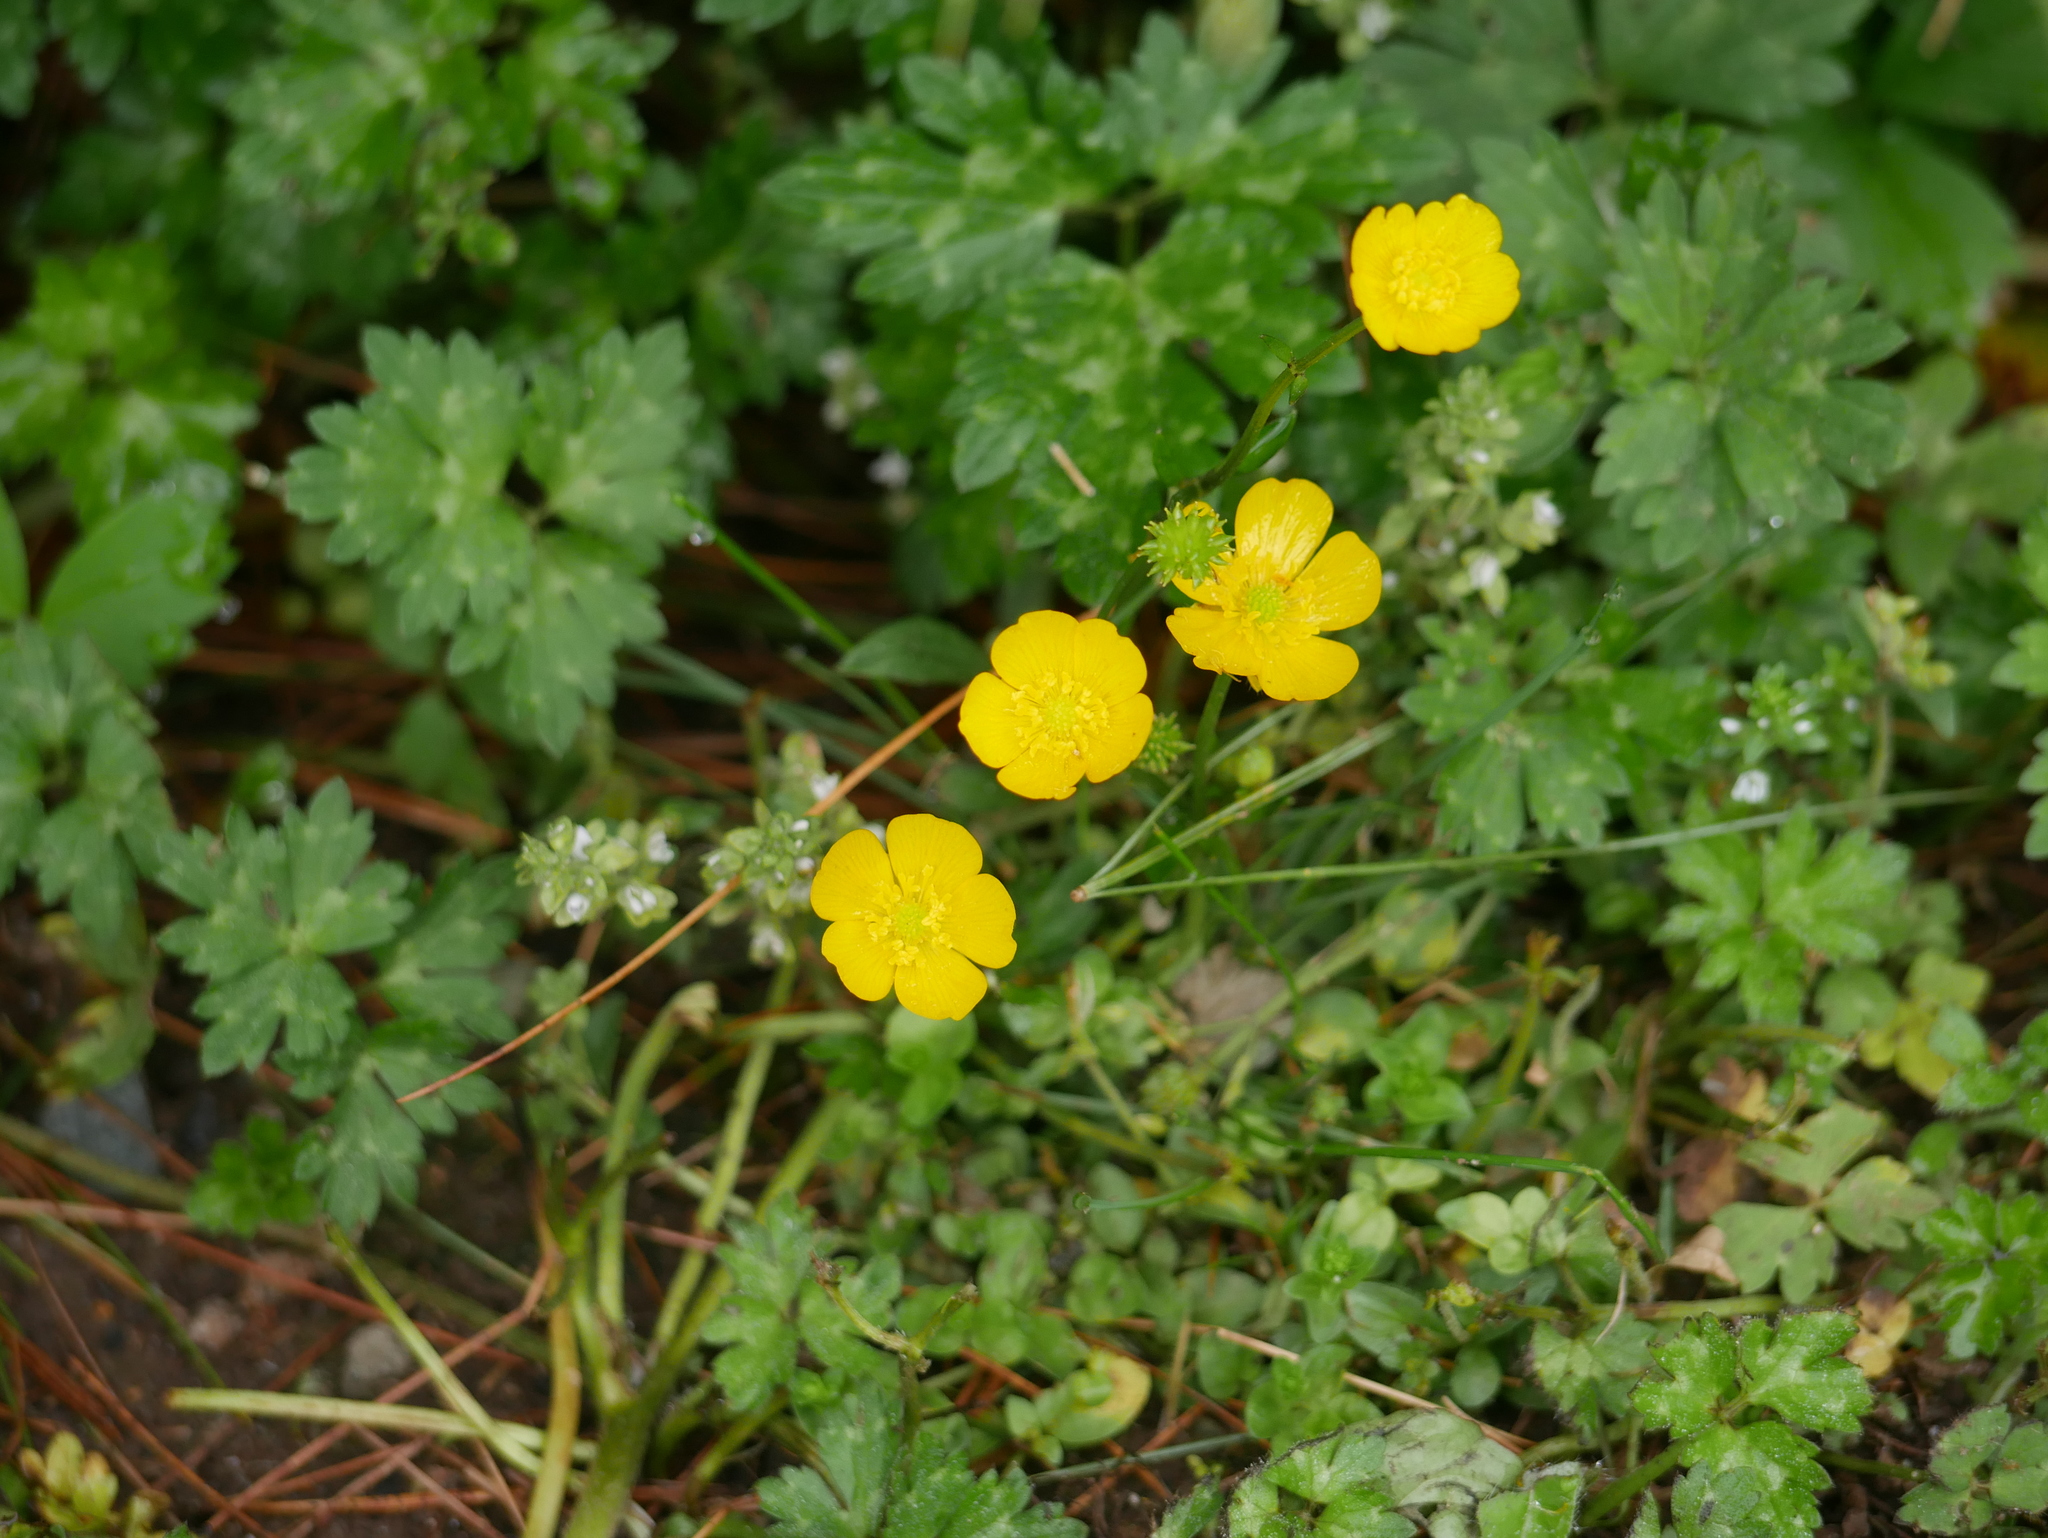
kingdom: Plantae
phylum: Tracheophyta
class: Magnoliopsida
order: Ranunculales
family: Ranunculaceae
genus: Ranunculus
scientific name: Ranunculus repens
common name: Creeping buttercup
